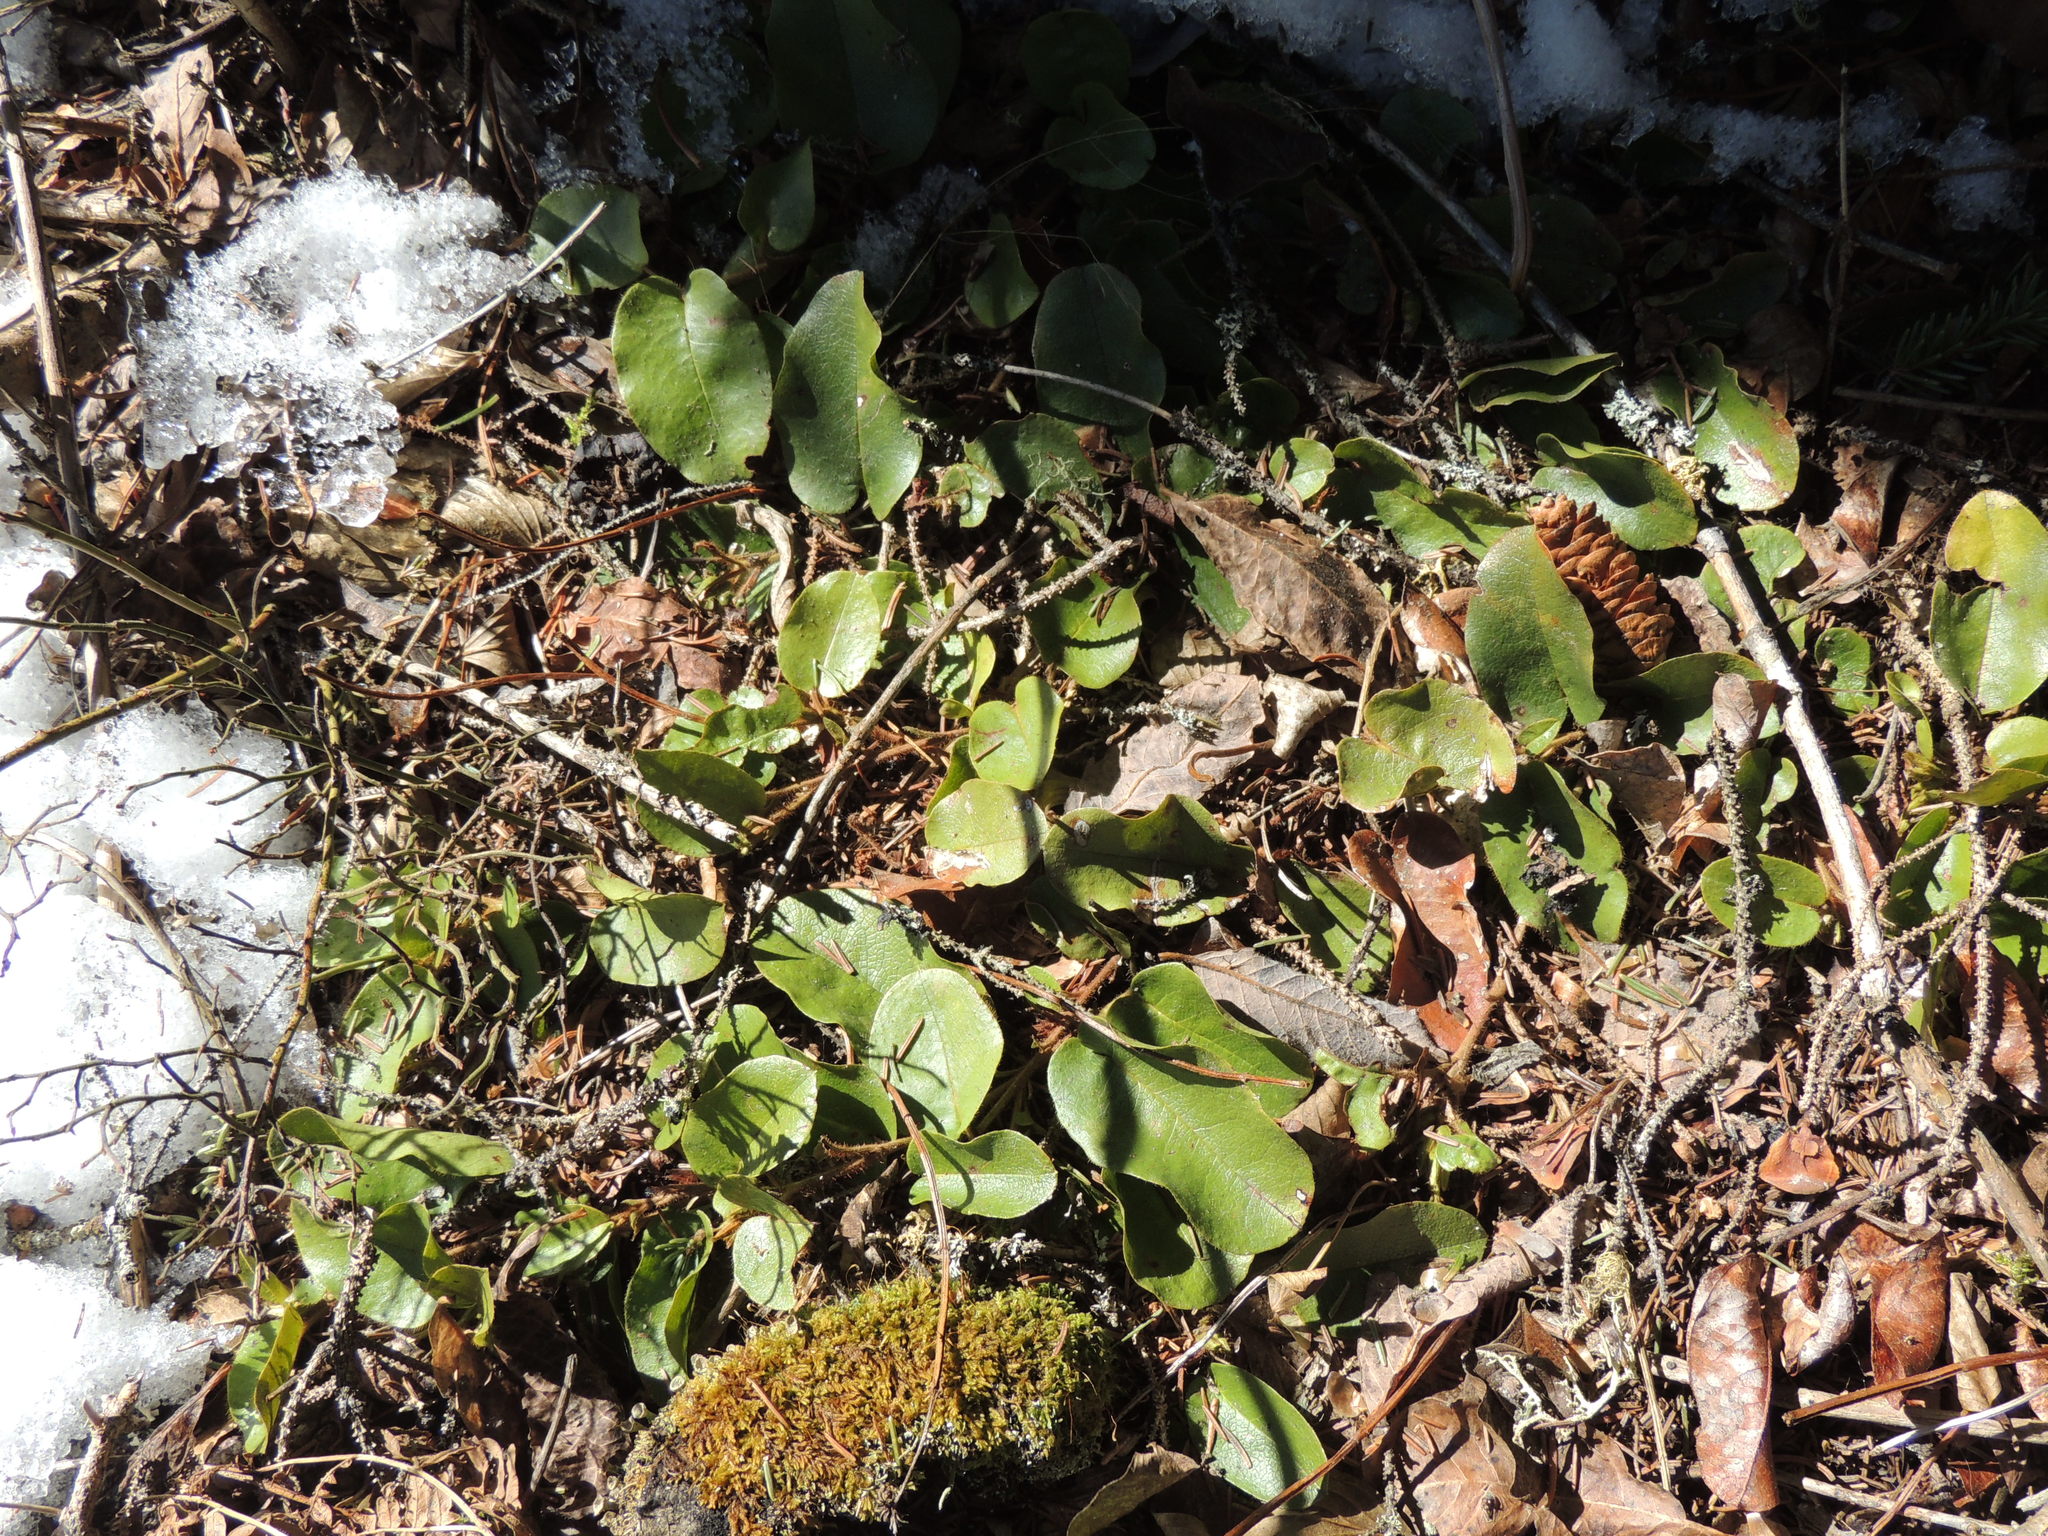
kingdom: Plantae
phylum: Tracheophyta
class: Magnoliopsida
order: Ericales
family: Ericaceae
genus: Epigaea
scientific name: Epigaea repens
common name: Gravelroot
